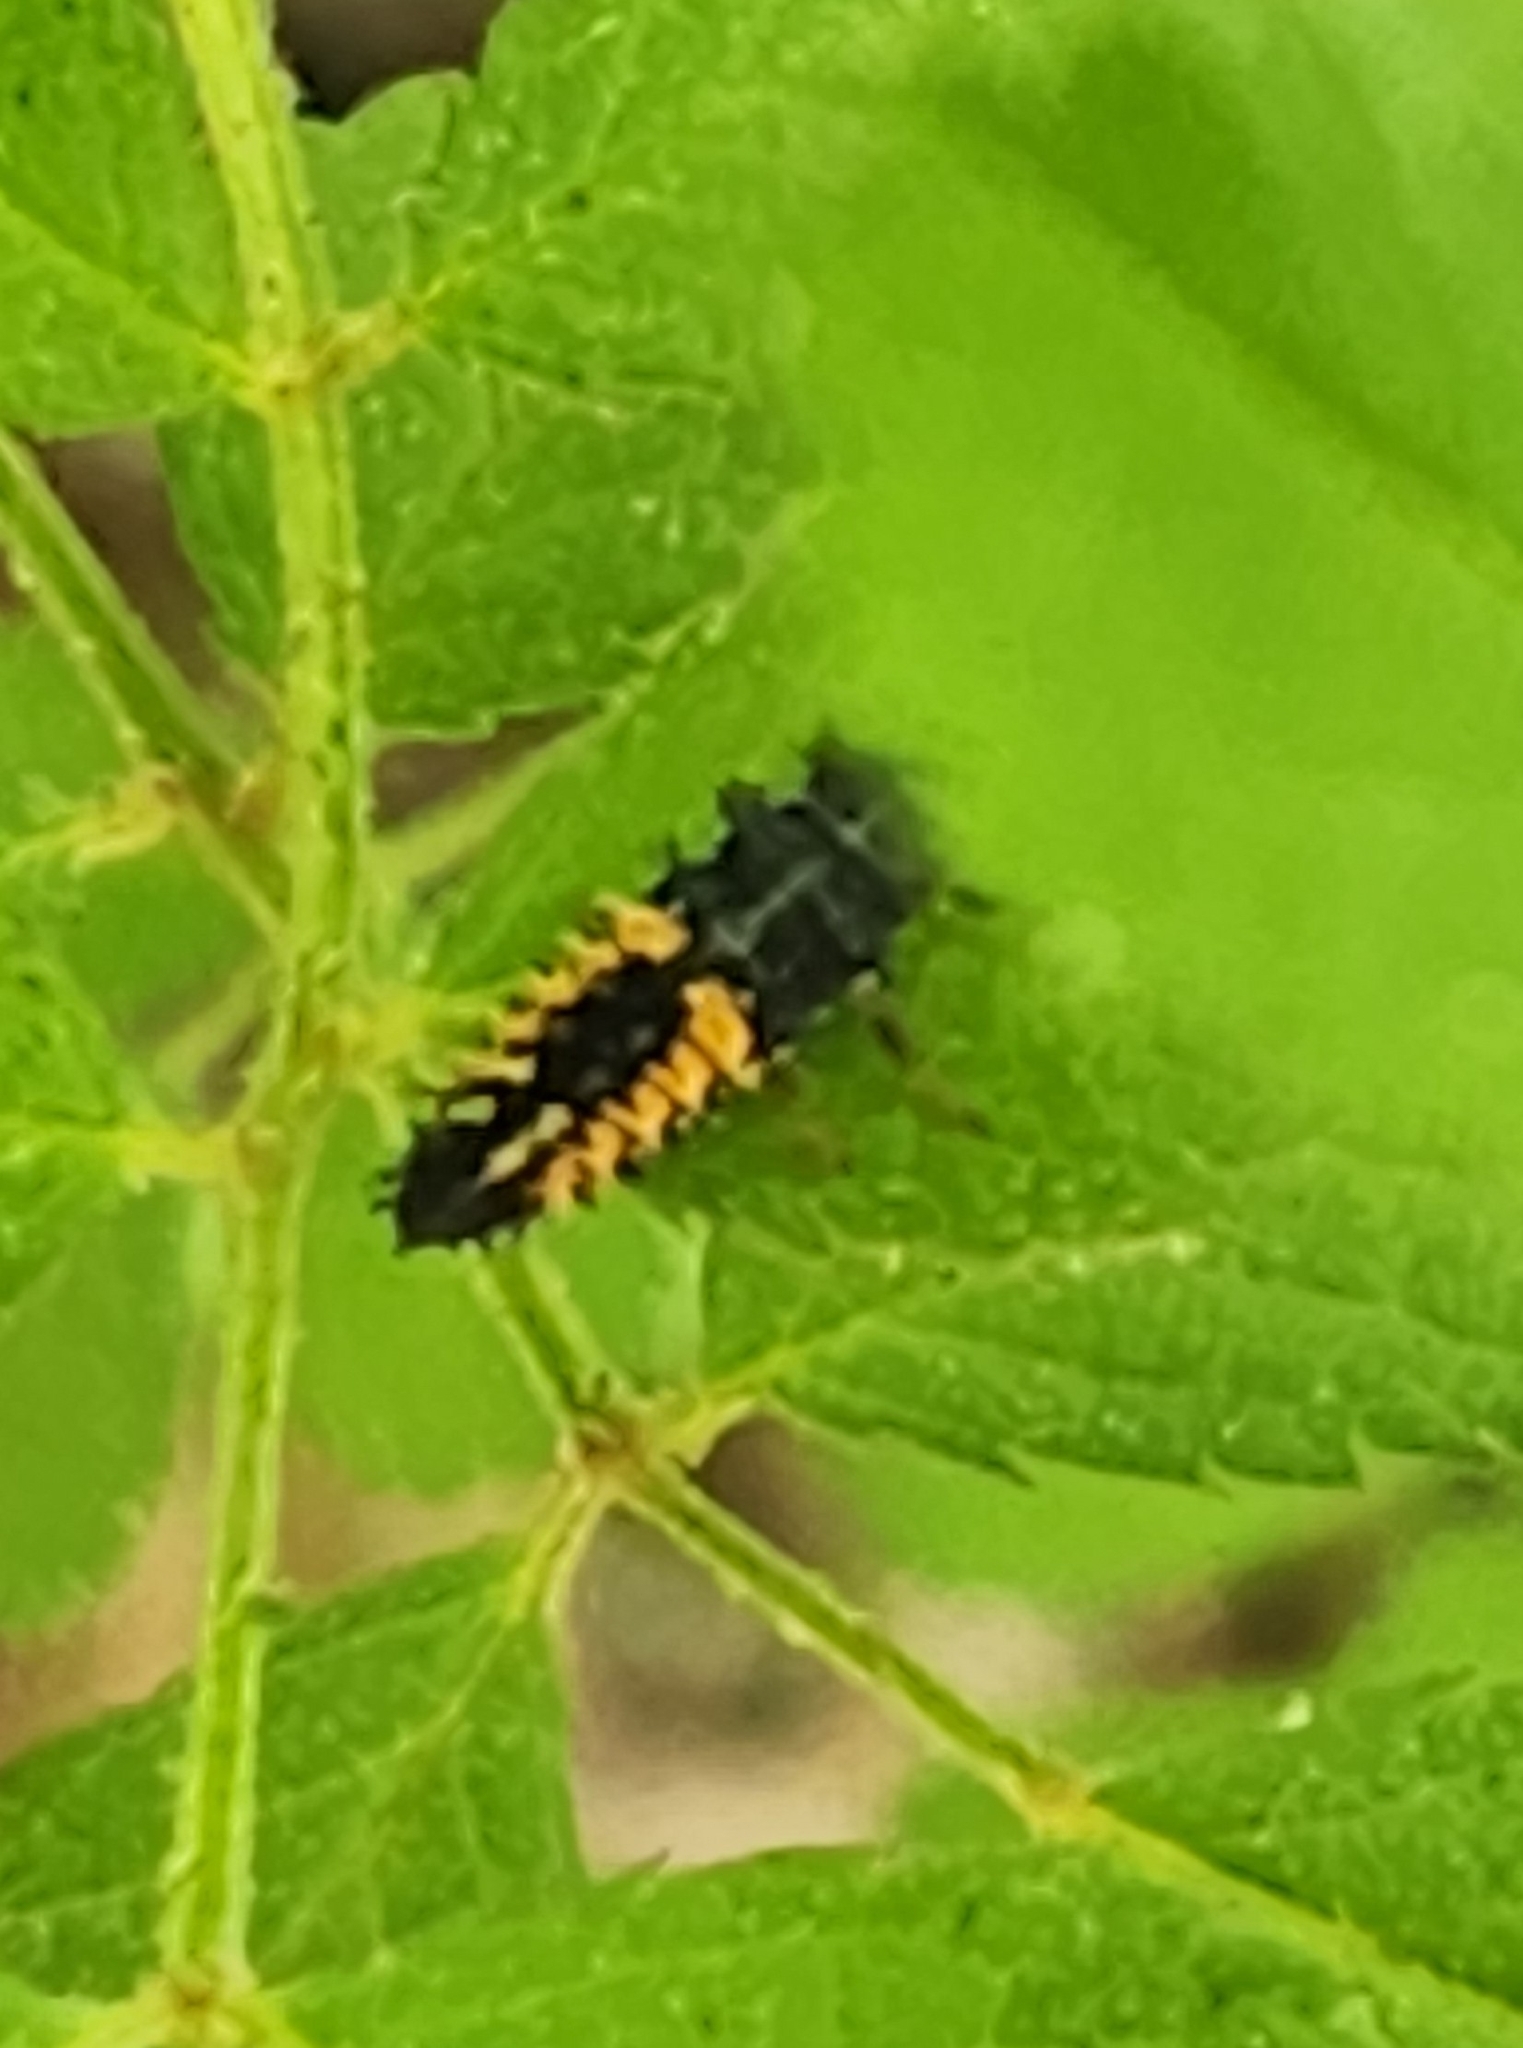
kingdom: Animalia
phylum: Arthropoda
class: Insecta
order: Coleoptera
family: Coccinellidae
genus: Harmonia
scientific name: Harmonia axyridis
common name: Harlequin ladybird
